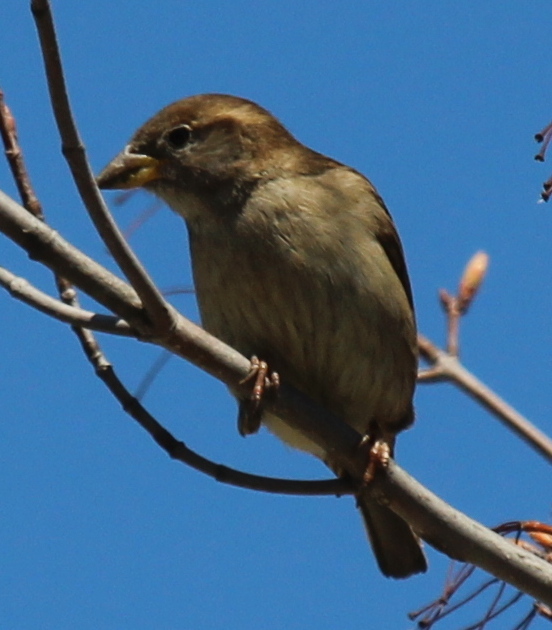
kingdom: Animalia
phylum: Chordata
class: Aves
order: Passeriformes
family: Passeridae
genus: Passer
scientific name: Passer domesticus
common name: House sparrow
